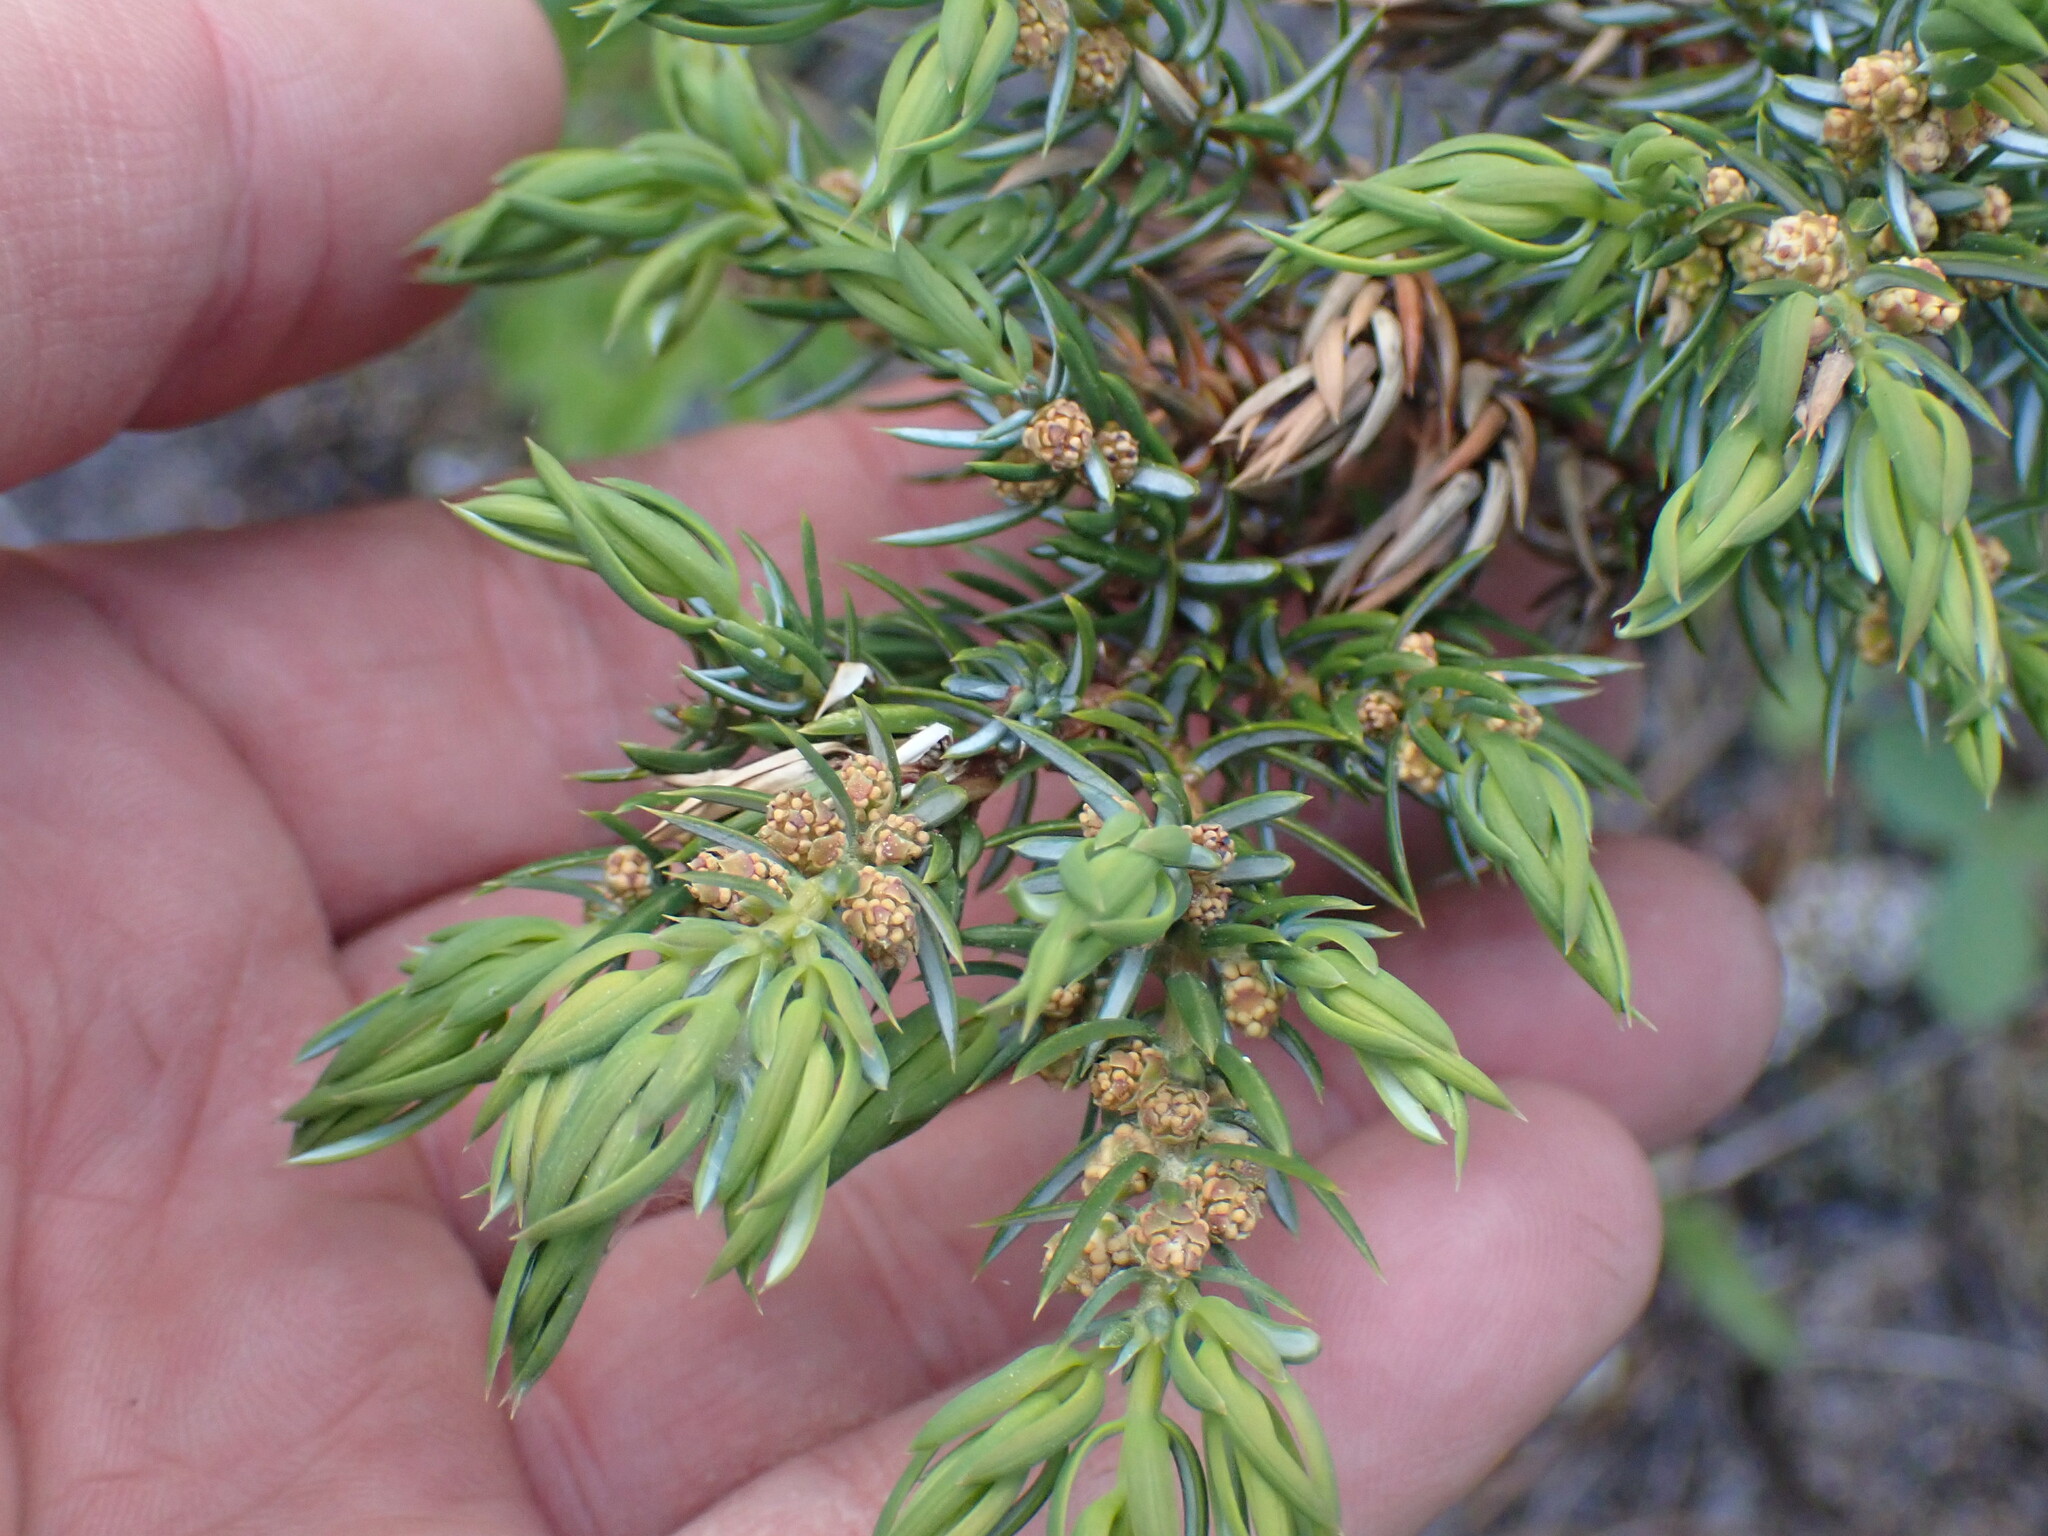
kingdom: Plantae
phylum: Tracheophyta
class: Pinopsida
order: Pinales
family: Cupressaceae
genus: Juniperus
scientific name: Juniperus communis
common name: Common juniper
